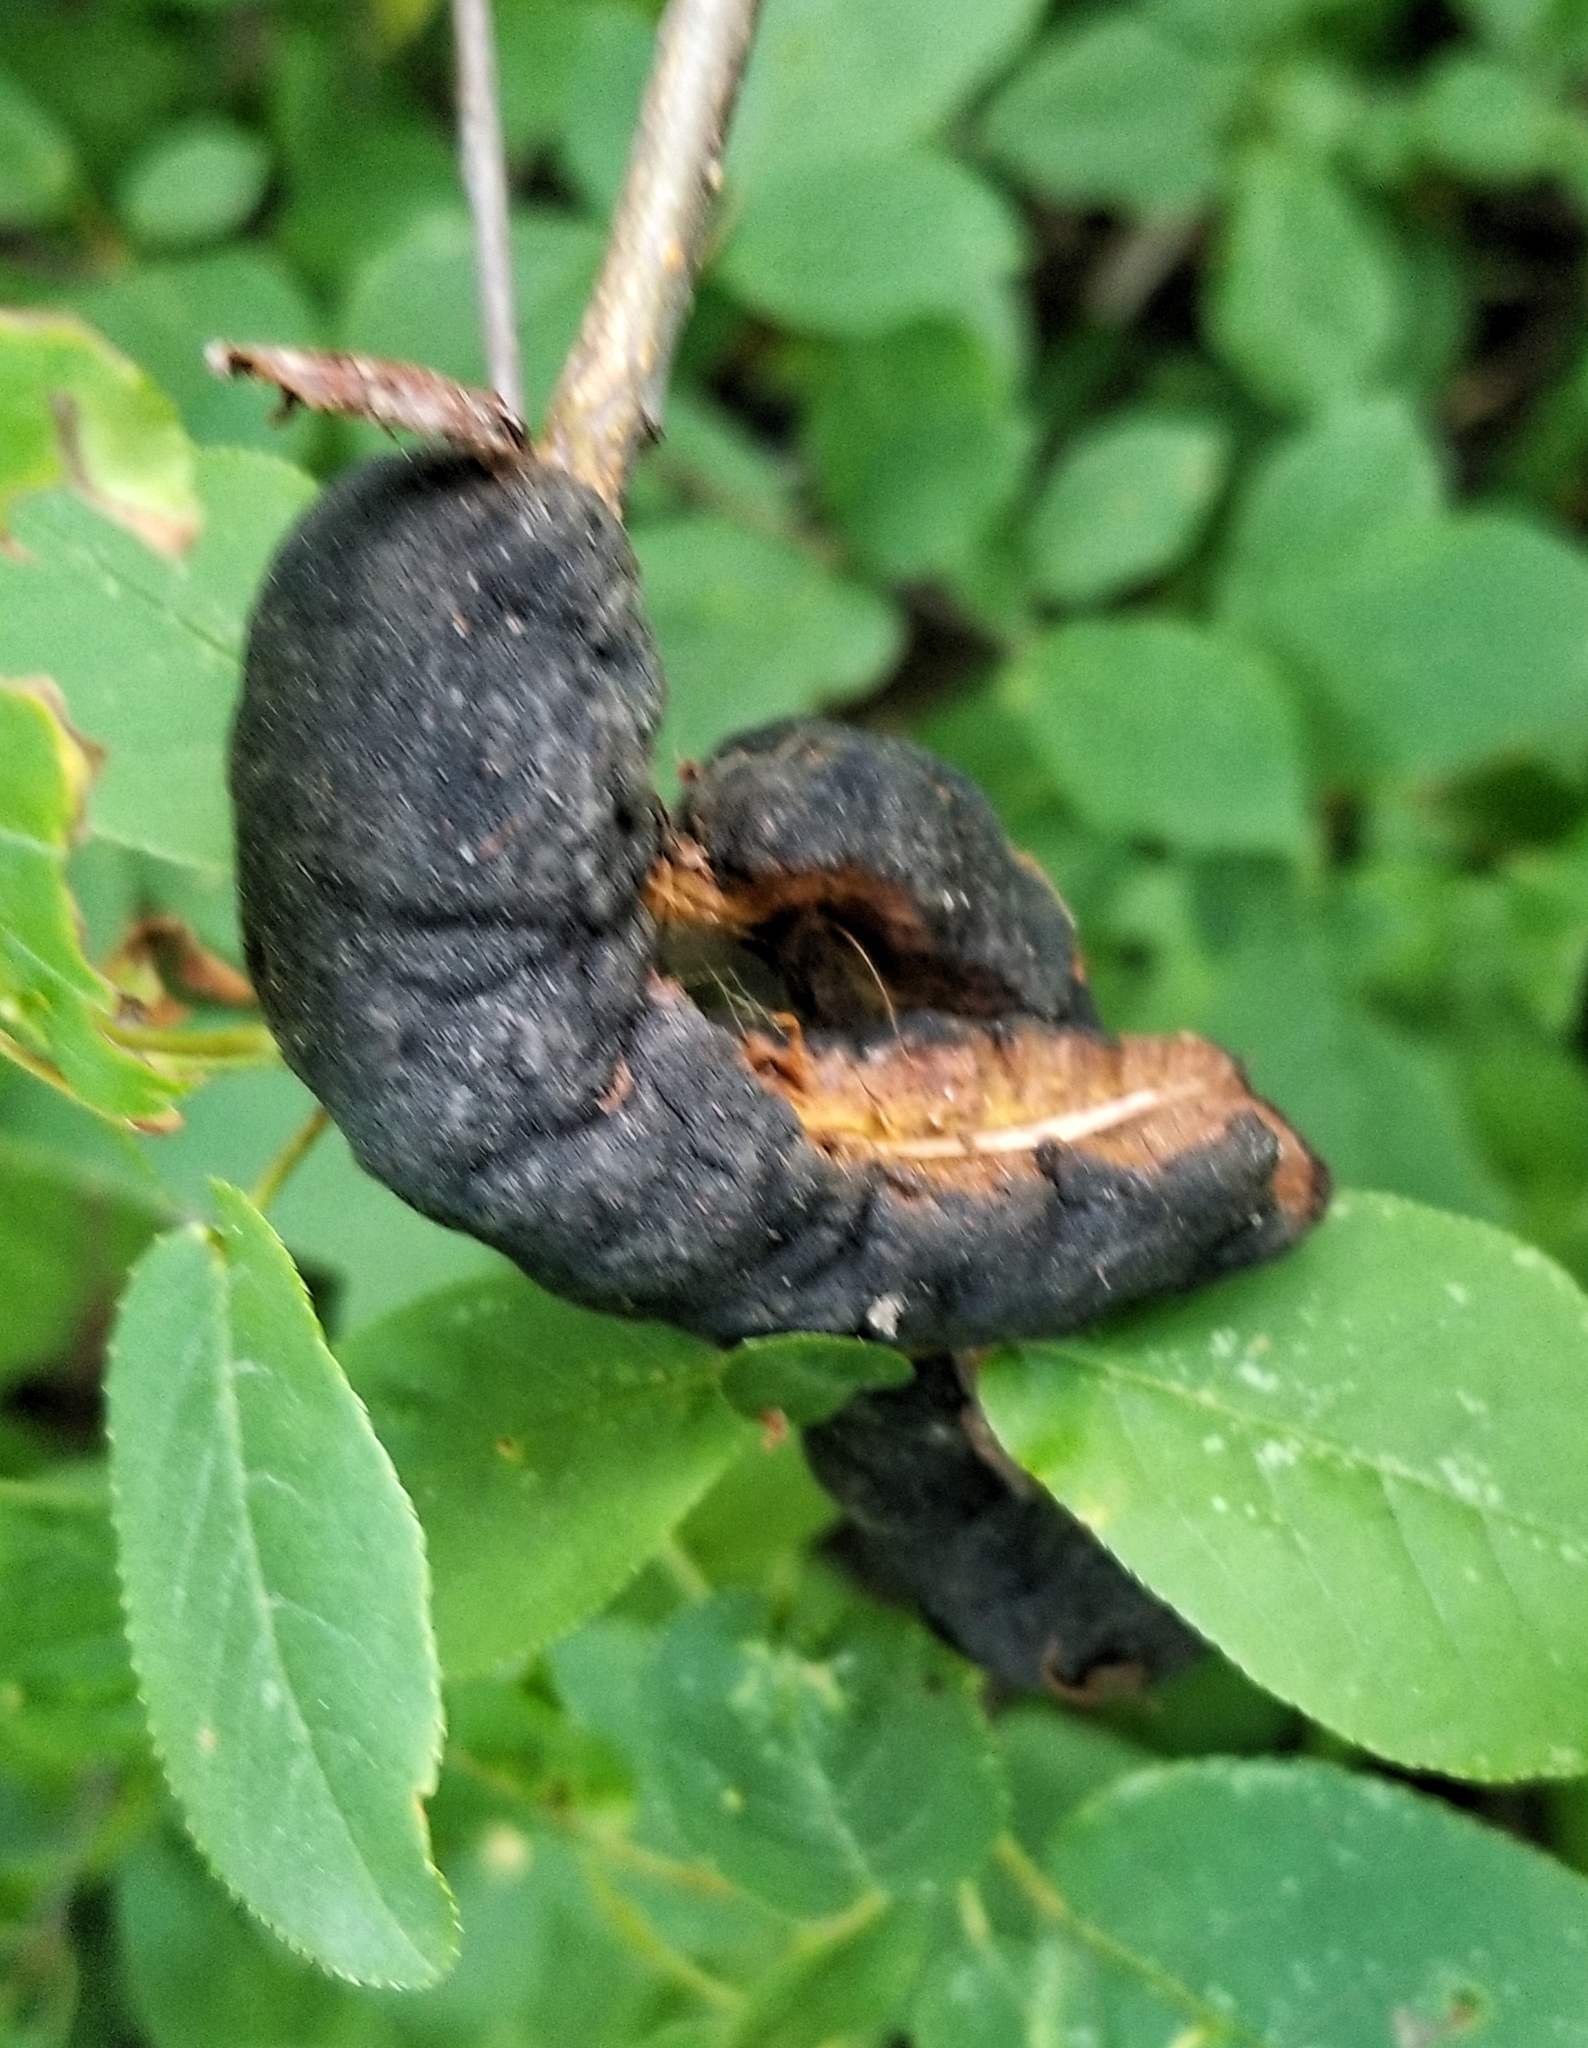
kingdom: Fungi
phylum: Ascomycota
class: Dothideomycetes
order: Venturiales
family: Venturiaceae
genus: Apiosporina
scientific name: Apiosporina morbosa
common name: Black knot
